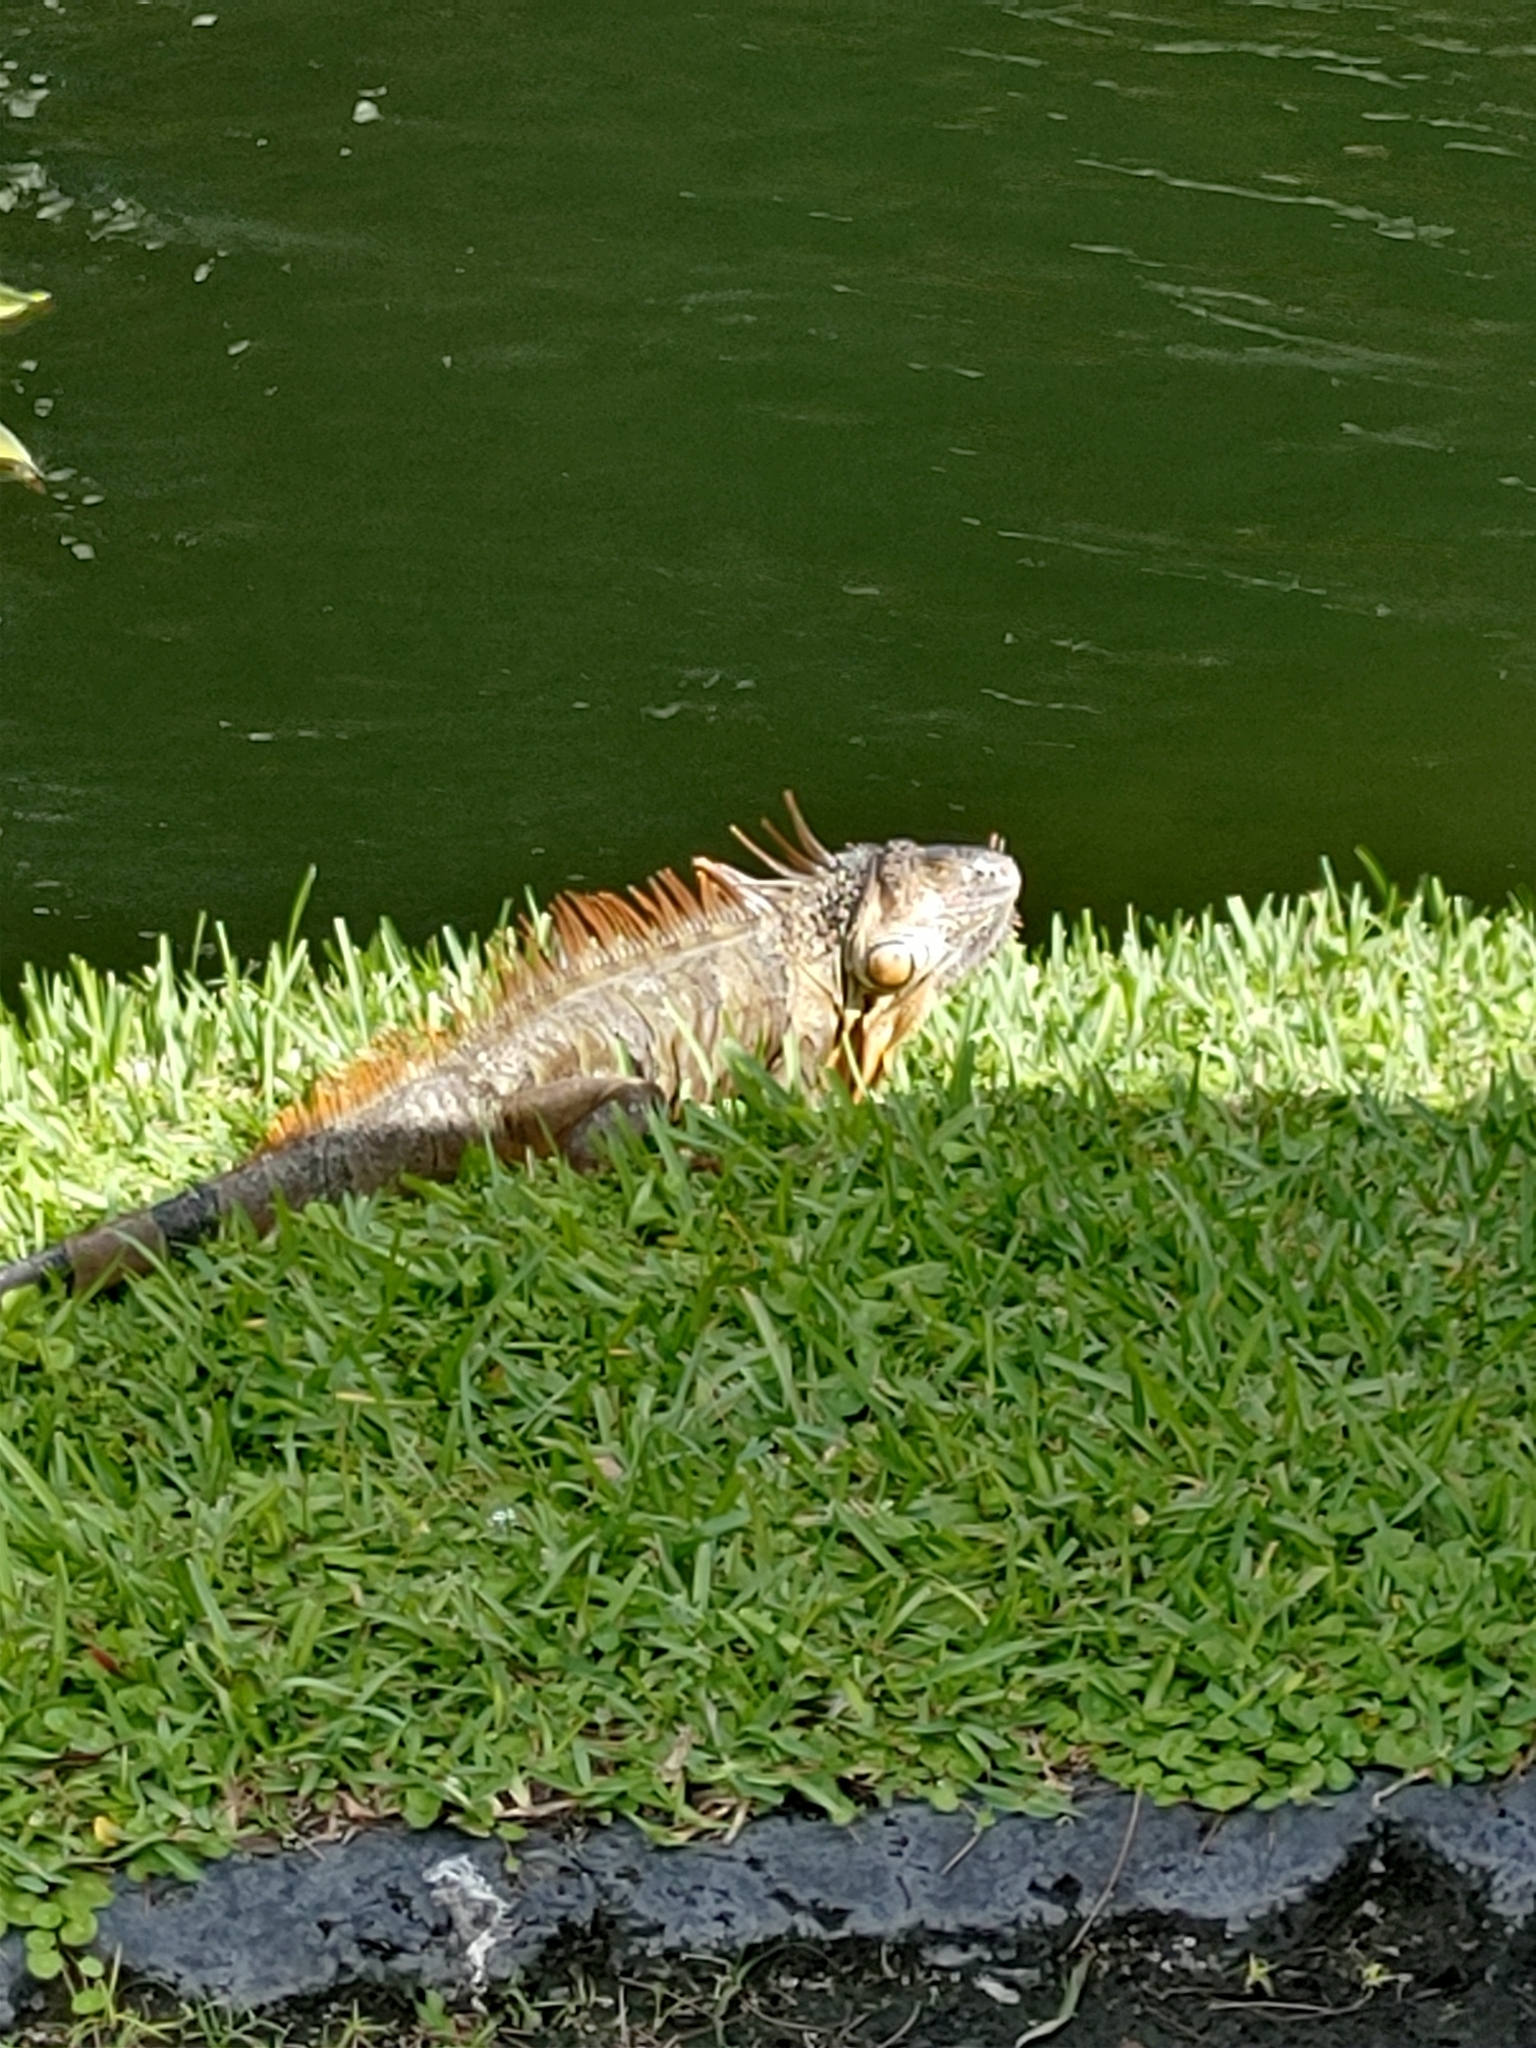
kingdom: Animalia
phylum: Chordata
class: Squamata
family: Iguanidae
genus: Iguana
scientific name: Iguana iguana
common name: Green iguana
